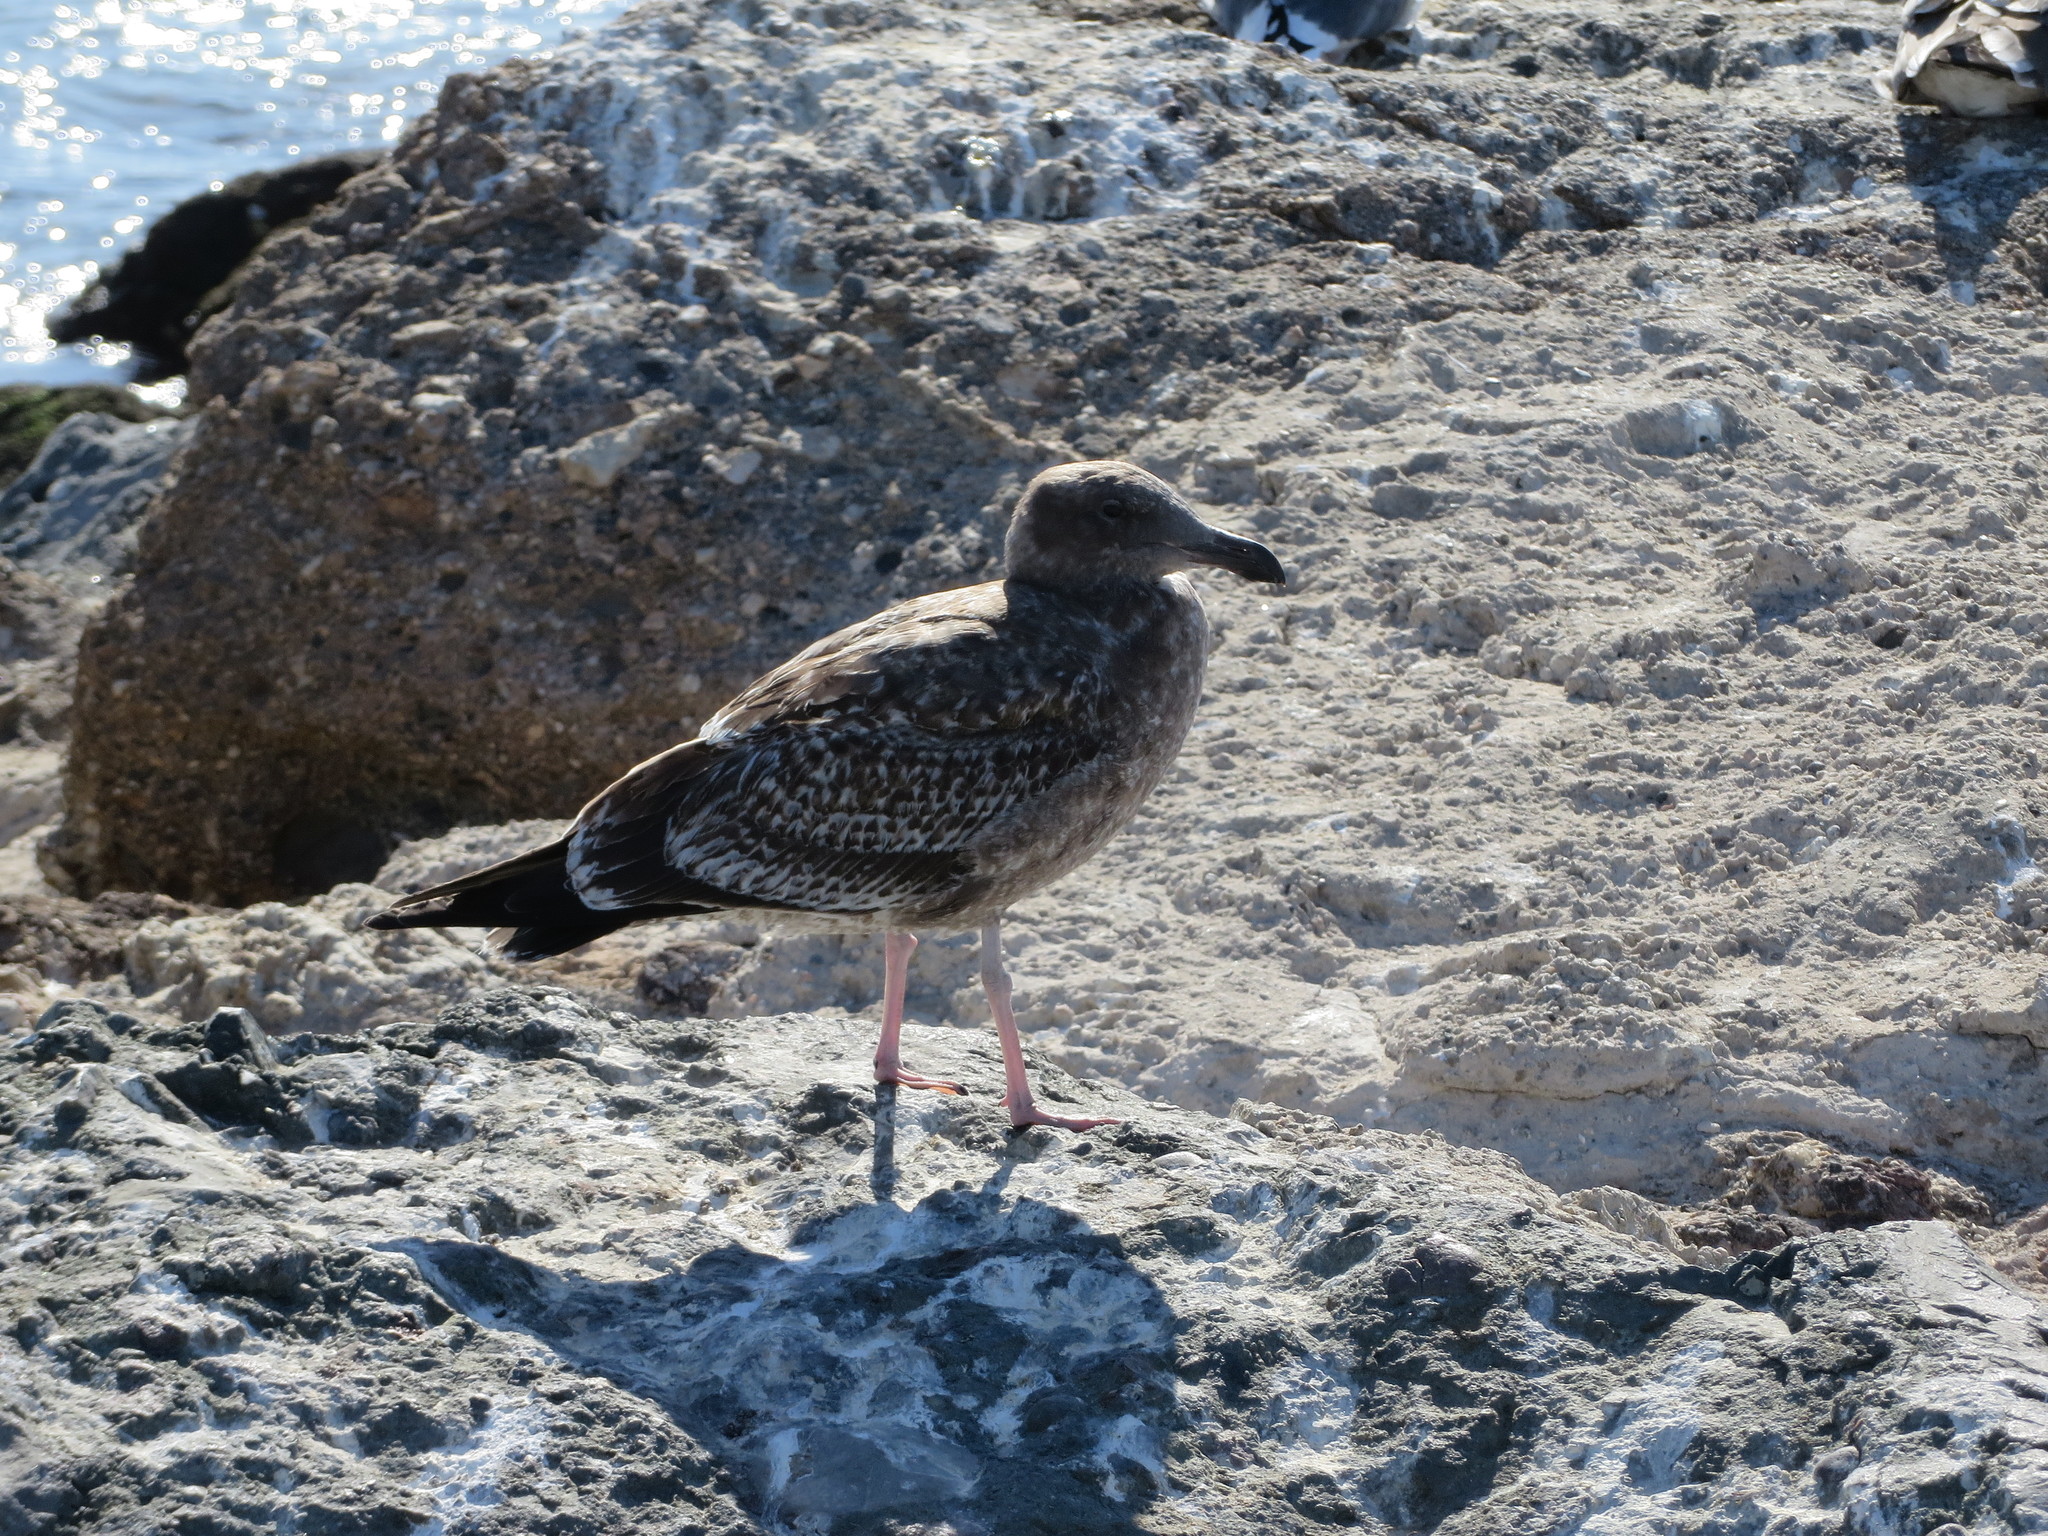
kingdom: Animalia
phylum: Chordata
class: Aves
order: Charadriiformes
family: Laridae
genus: Larus
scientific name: Larus occidentalis
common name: Western gull
